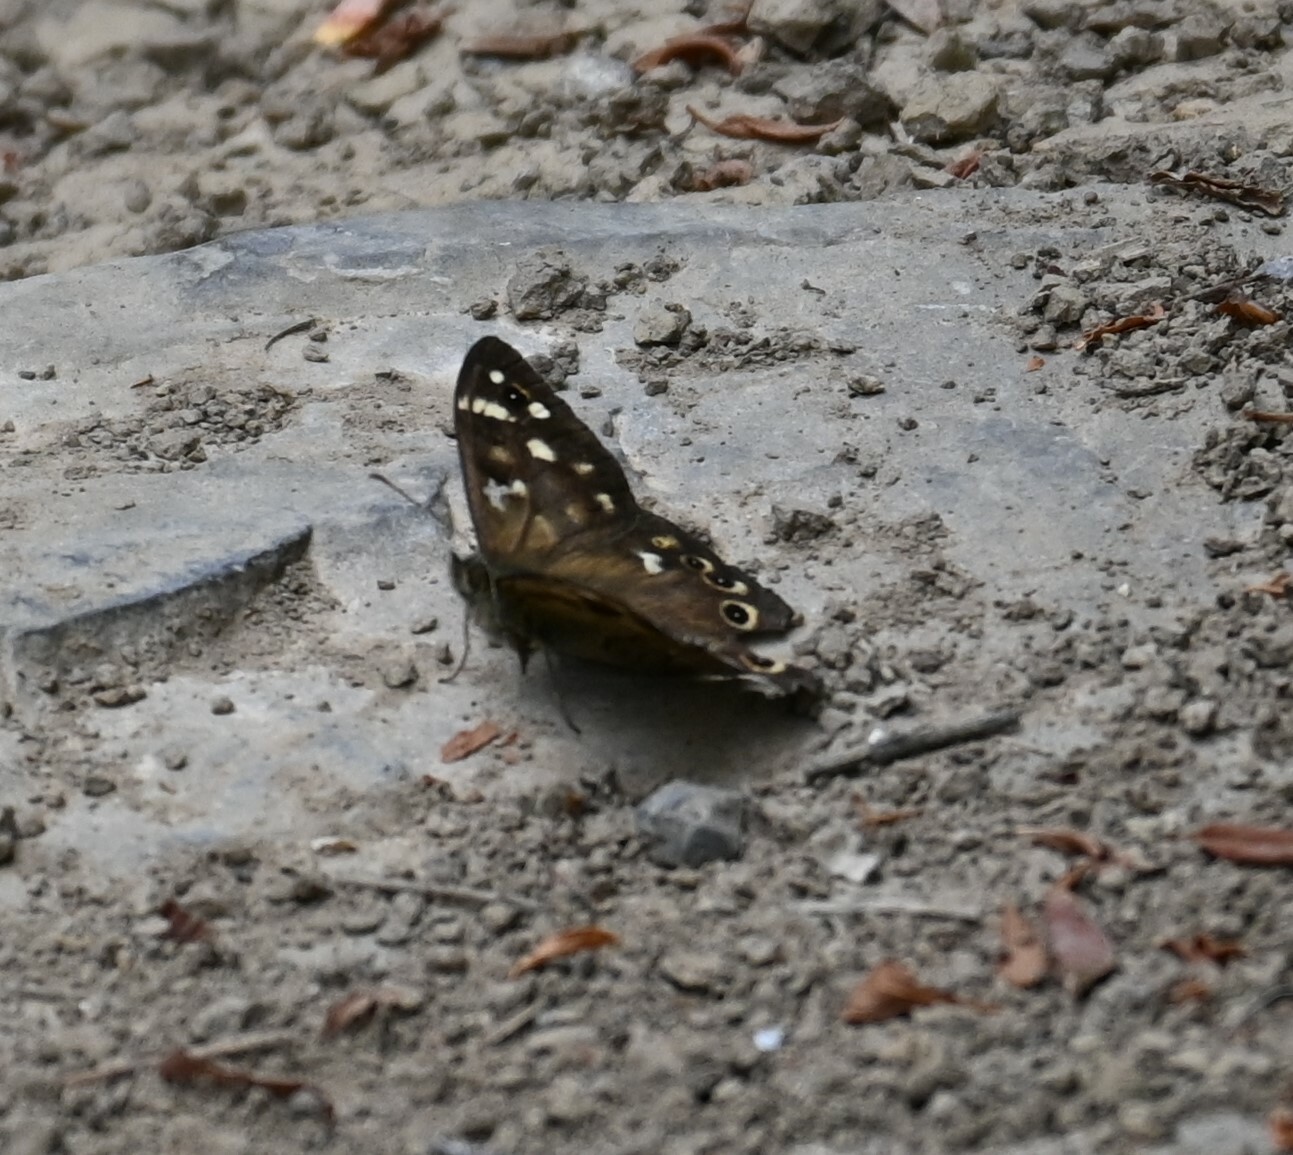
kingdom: Animalia
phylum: Arthropoda
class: Insecta
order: Lepidoptera
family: Nymphalidae
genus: Pararge
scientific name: Pararge aegeria
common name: Speckled wood
